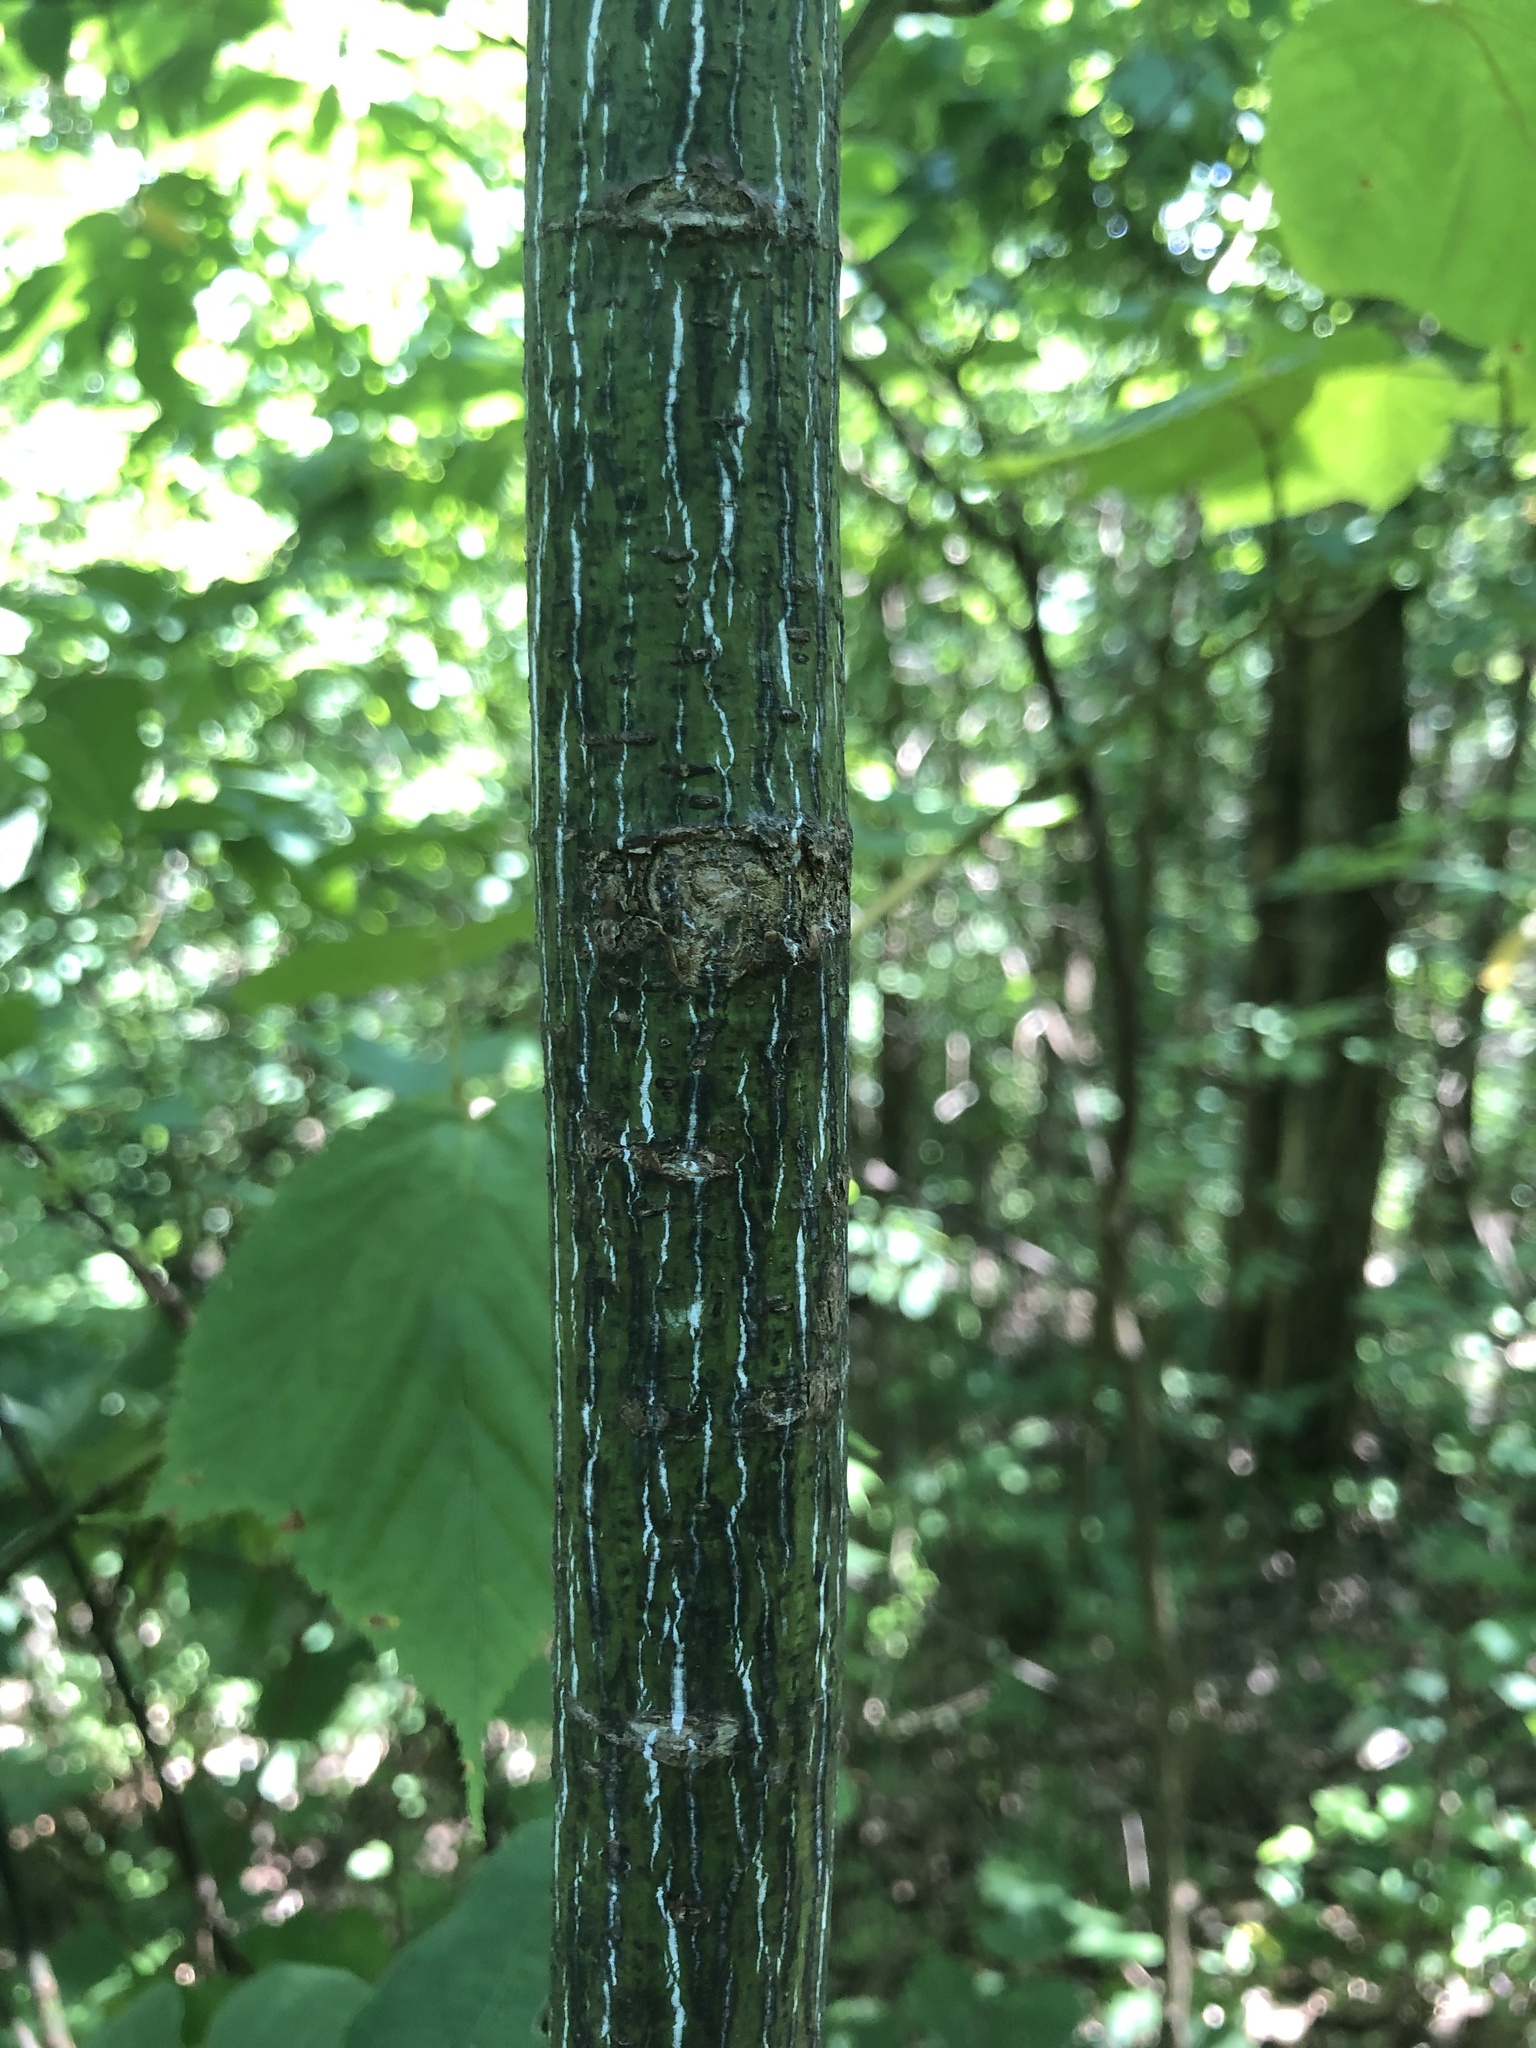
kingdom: Plantae
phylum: Tracheophyta
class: Magnoliopsida
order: Sapindales
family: Sapindaceae
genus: Acer
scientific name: Acer pensylvanicum
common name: Moosewood
